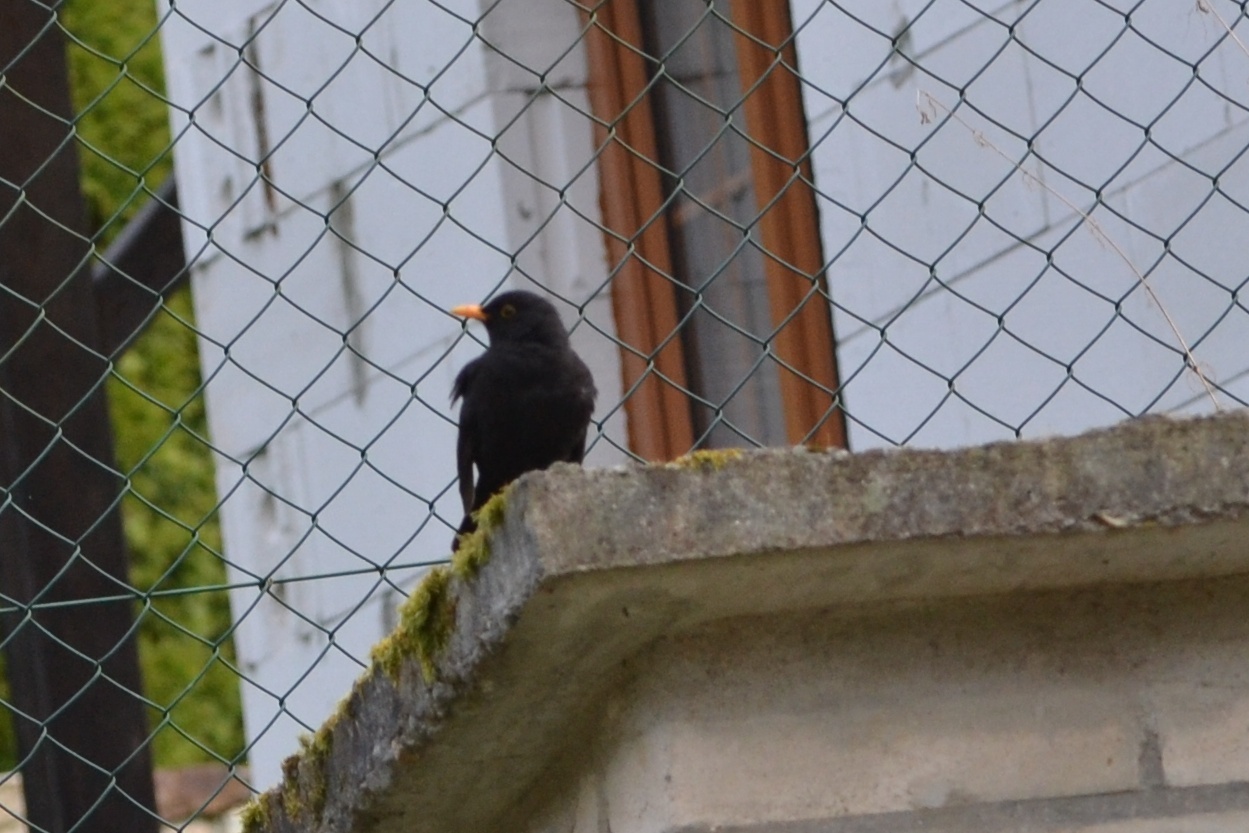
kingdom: Animalia
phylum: Chordata
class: Aves
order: Passeriformes
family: Turdidae
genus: Turdus
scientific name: Turdus merula
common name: Common blackbird
